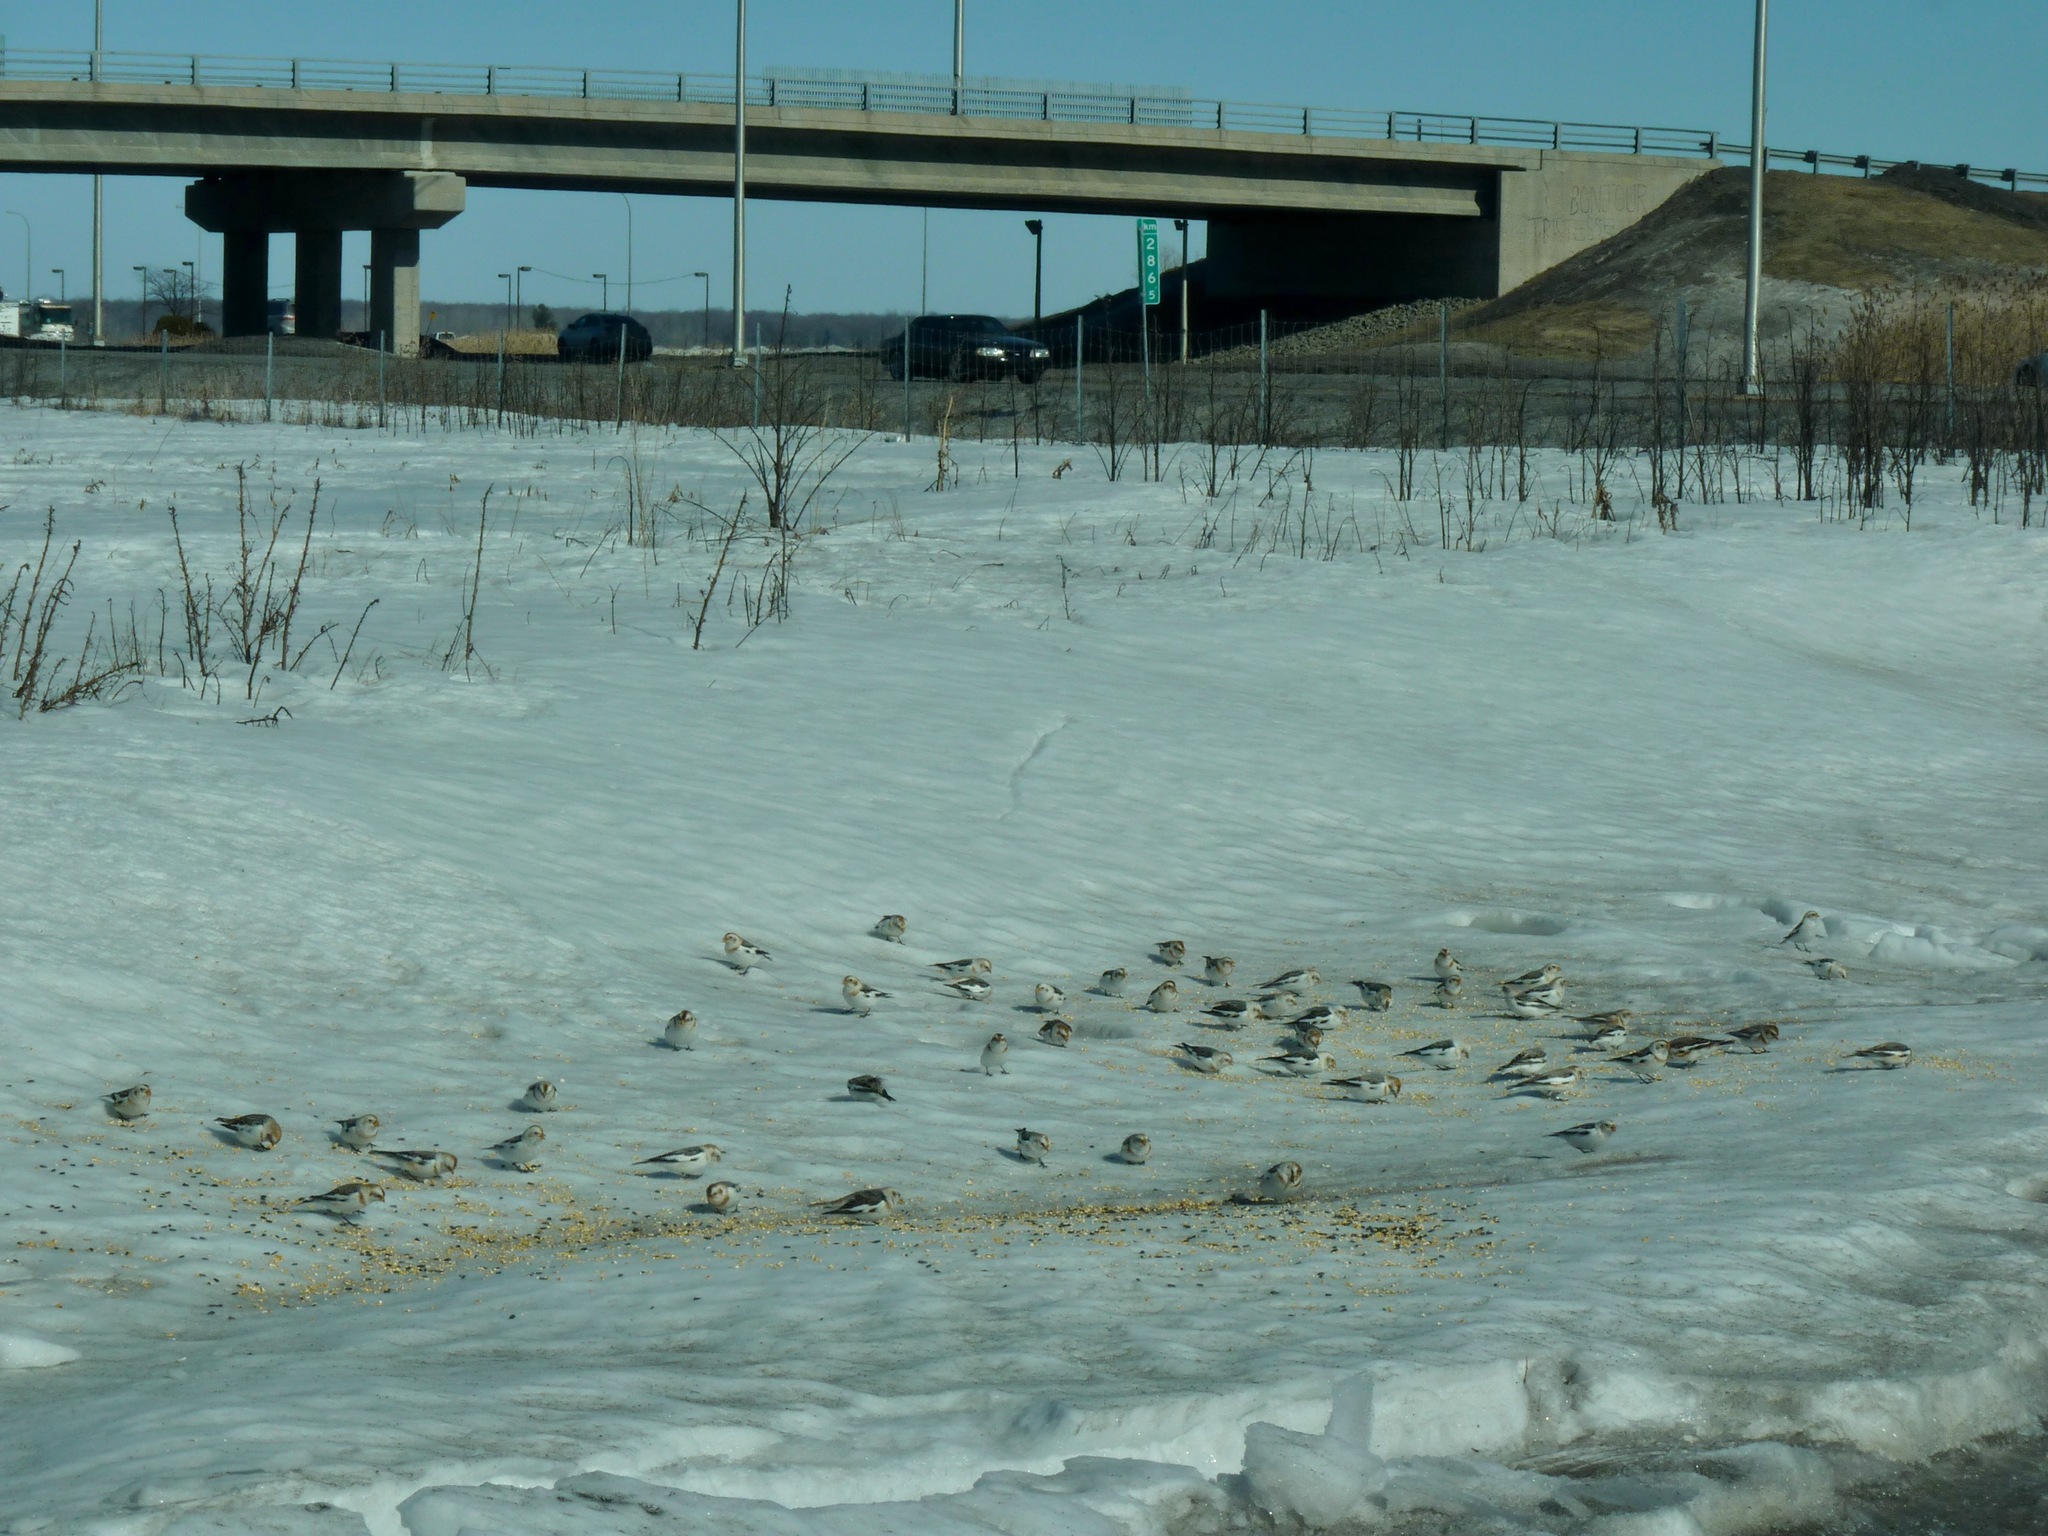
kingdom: Animalia
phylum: Chordata
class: Aves
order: Passeriformes
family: Calcariidae
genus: Plectrophenax
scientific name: Plectrophenax nivalis
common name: Snow bunting
